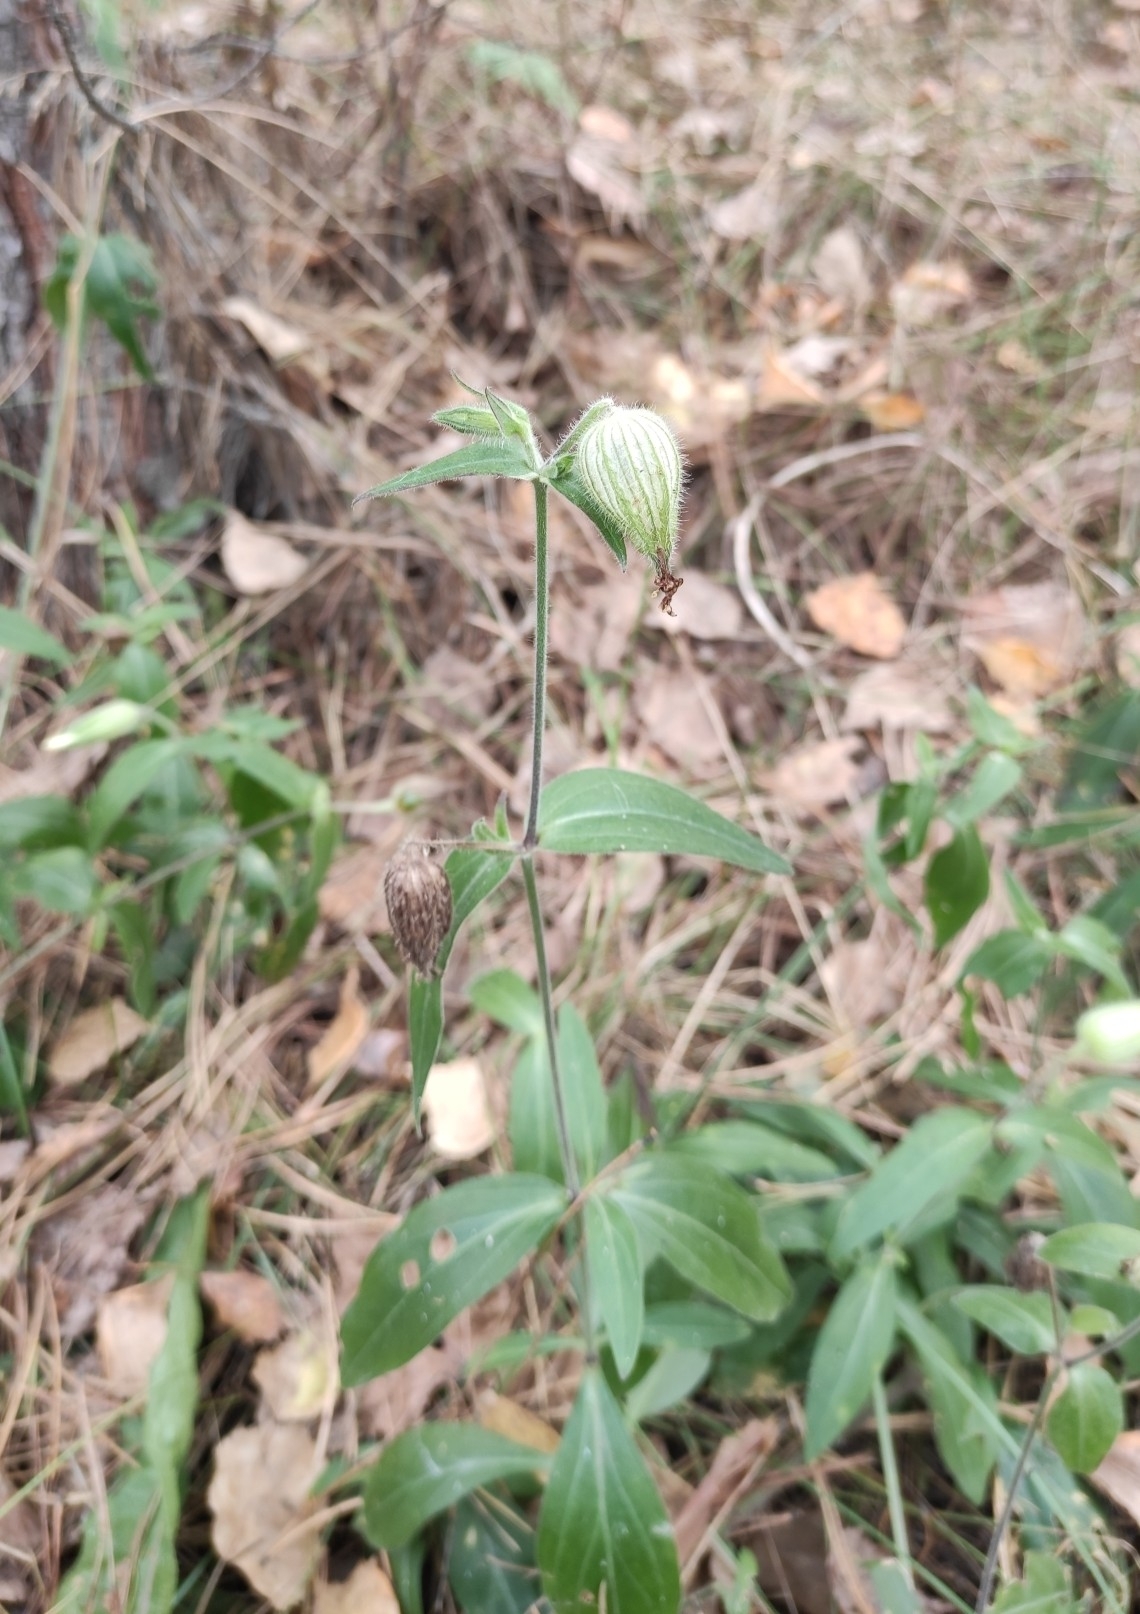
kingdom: Plantae
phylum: Tracheophyta
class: Magnoliopsida
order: Caryophyllales
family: Caryophyllaceae
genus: Silene
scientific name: Silene latifolia
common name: White campion
